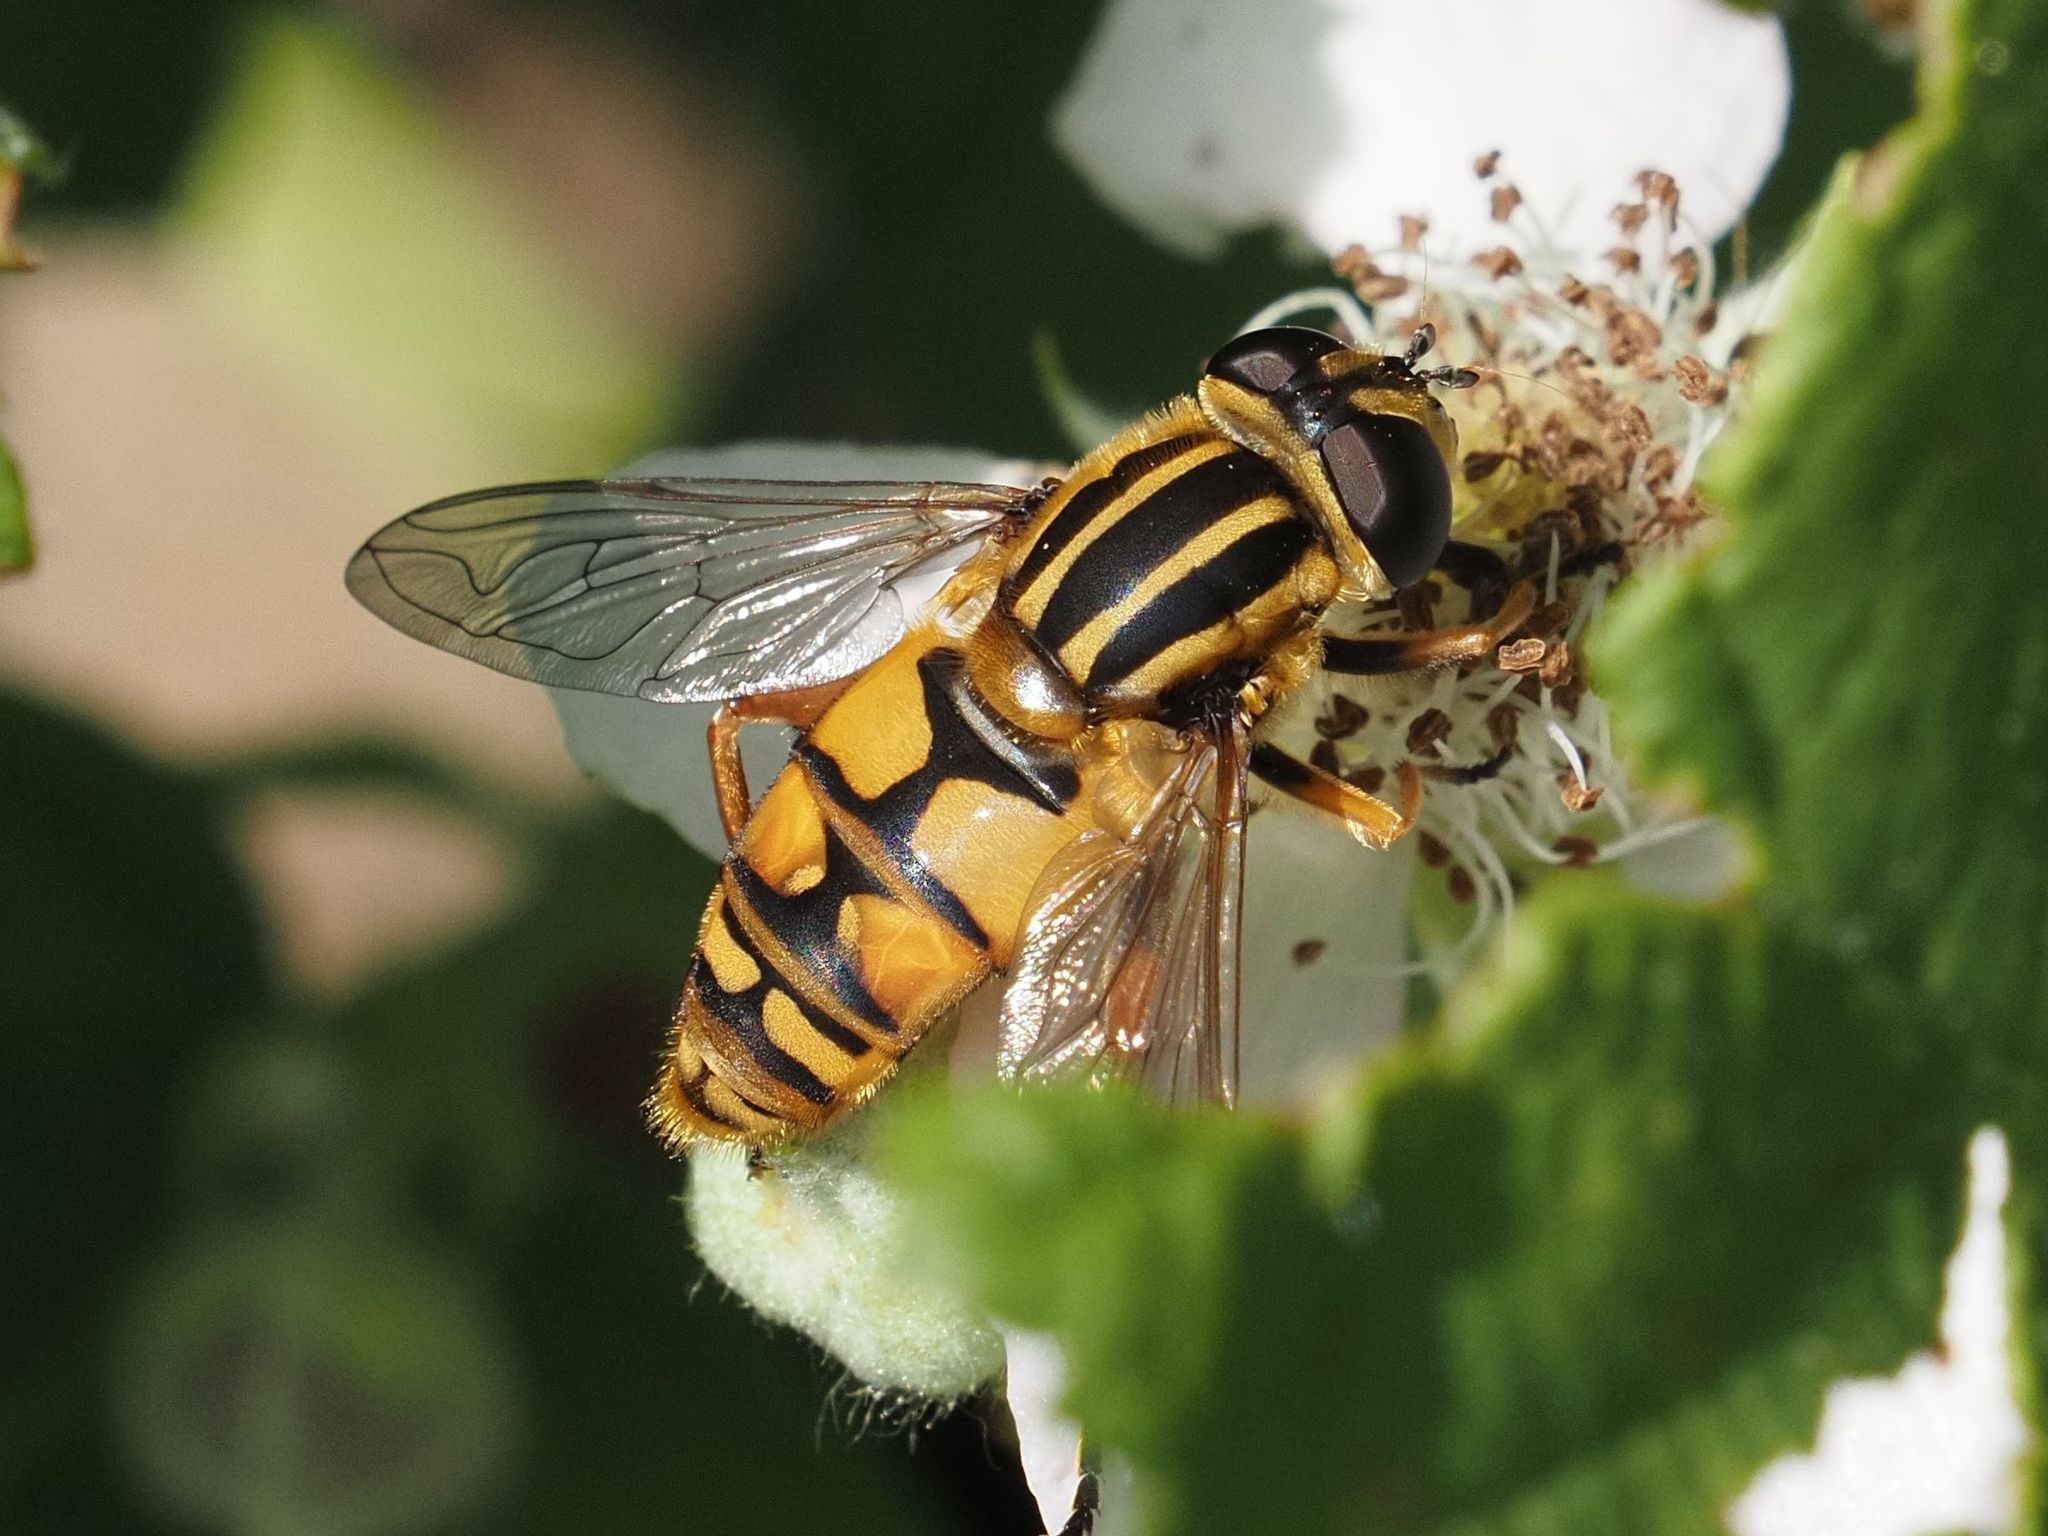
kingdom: Animalia
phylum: Arthropoda
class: Insecta
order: Diptera
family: Syrphidae
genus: Helophilus
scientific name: Helophilus pendulus
